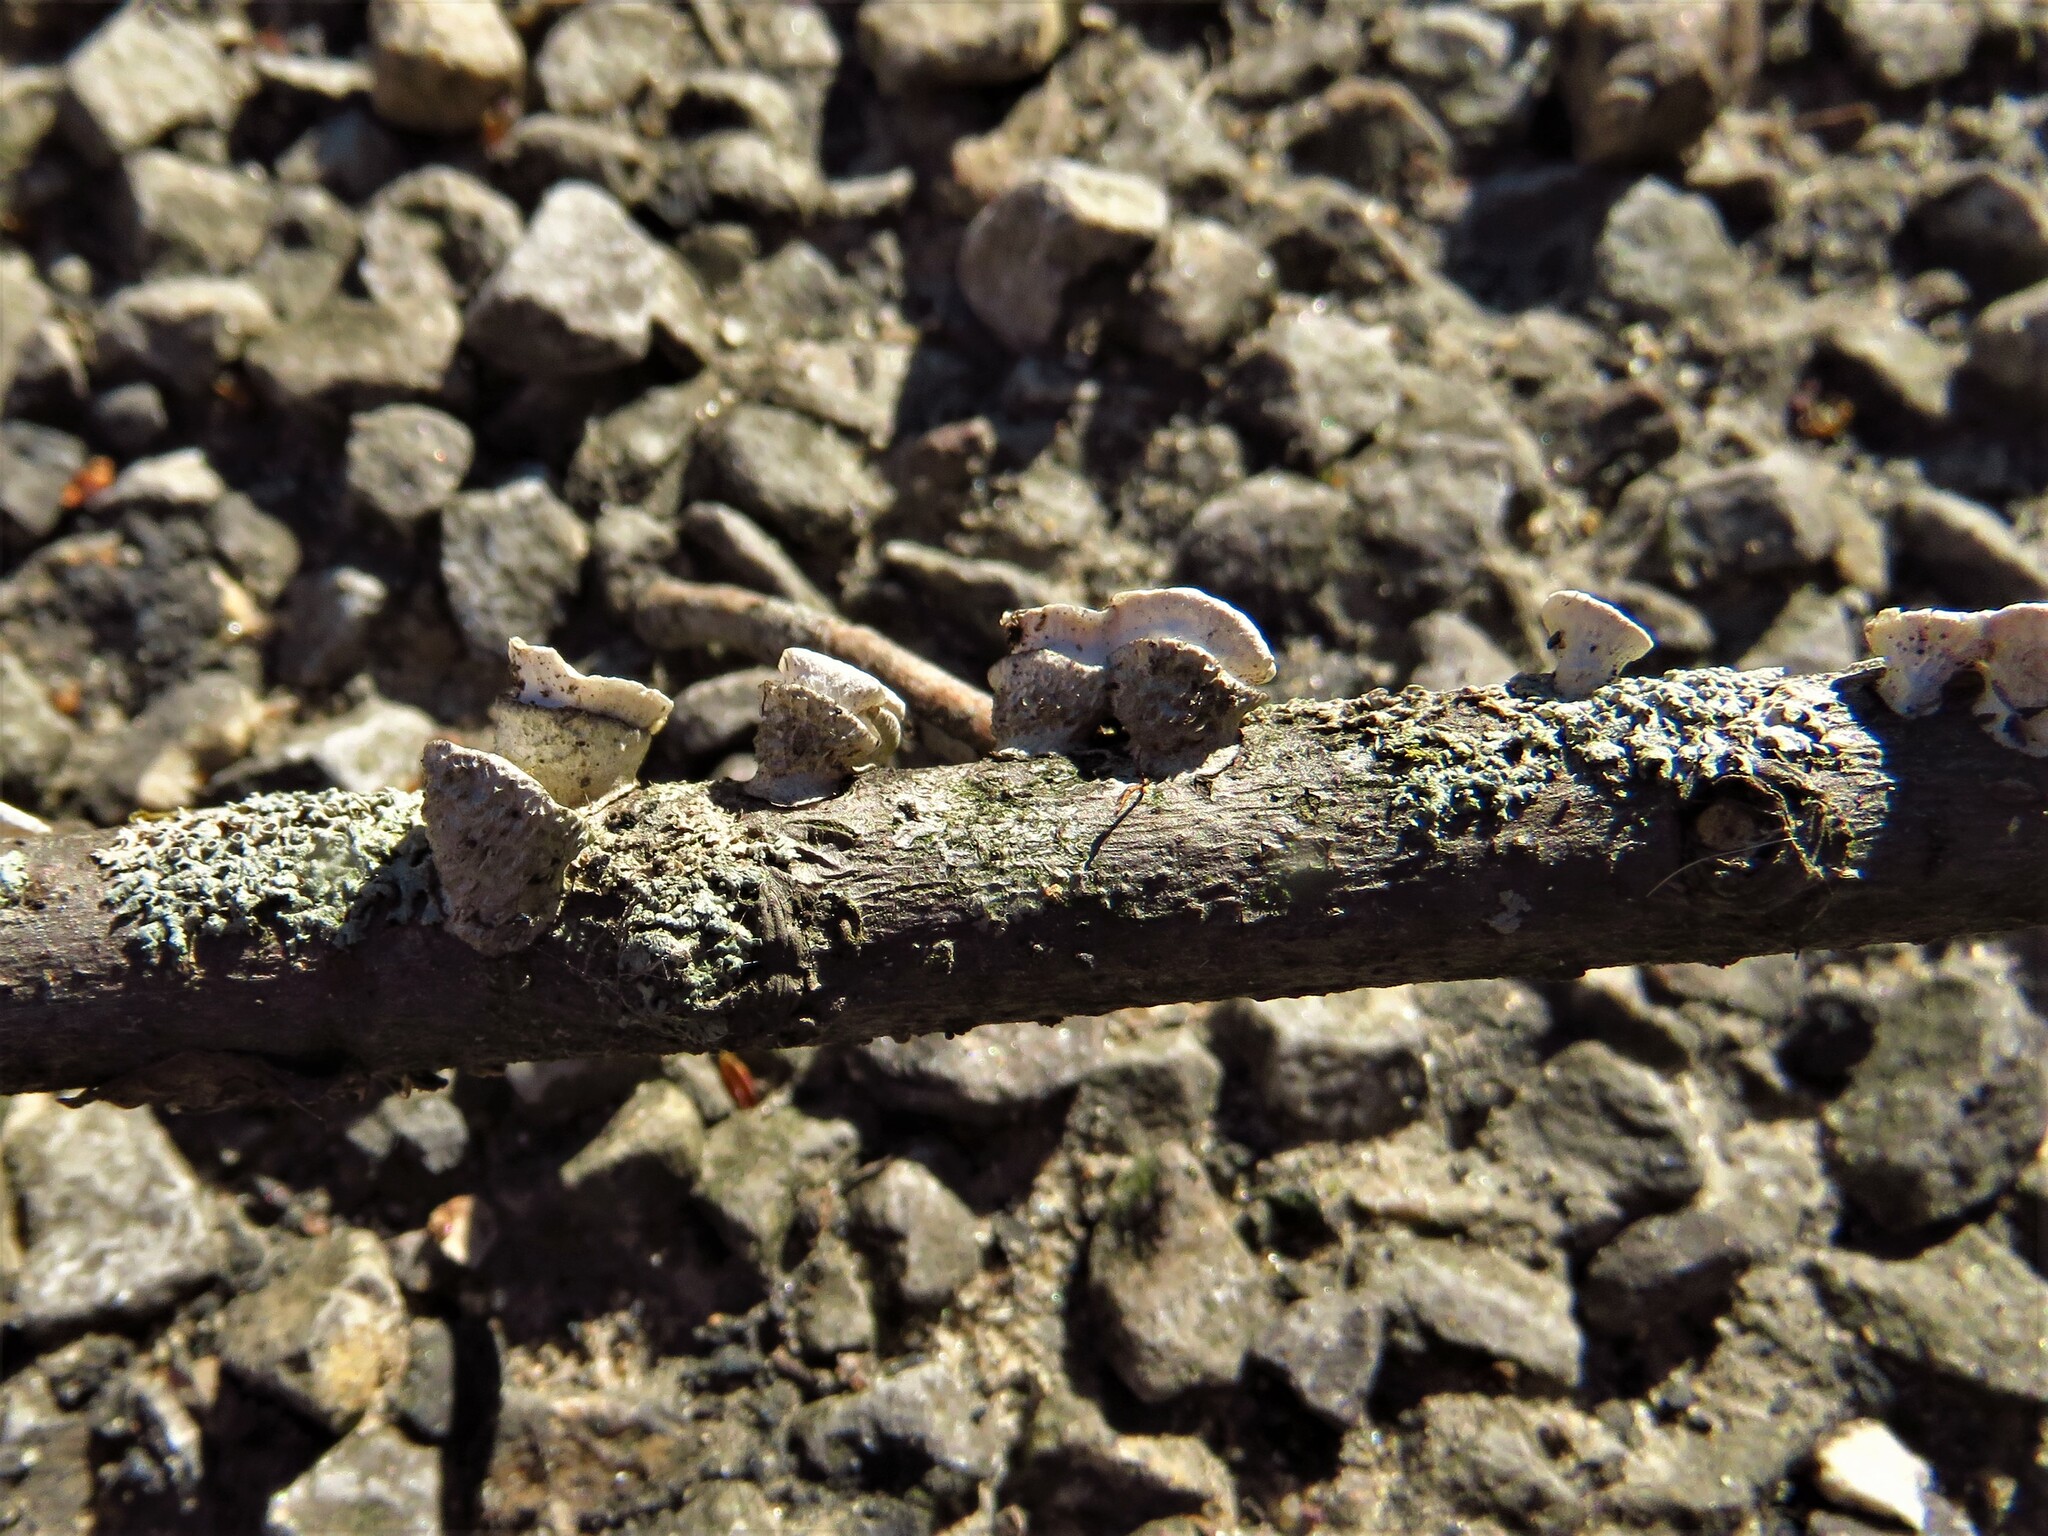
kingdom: Fungi
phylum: Basidiomycota
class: Agaricomycetes
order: Polyporales
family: Polyporaceae
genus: Poronidulus
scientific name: Poronidulus conchifer
